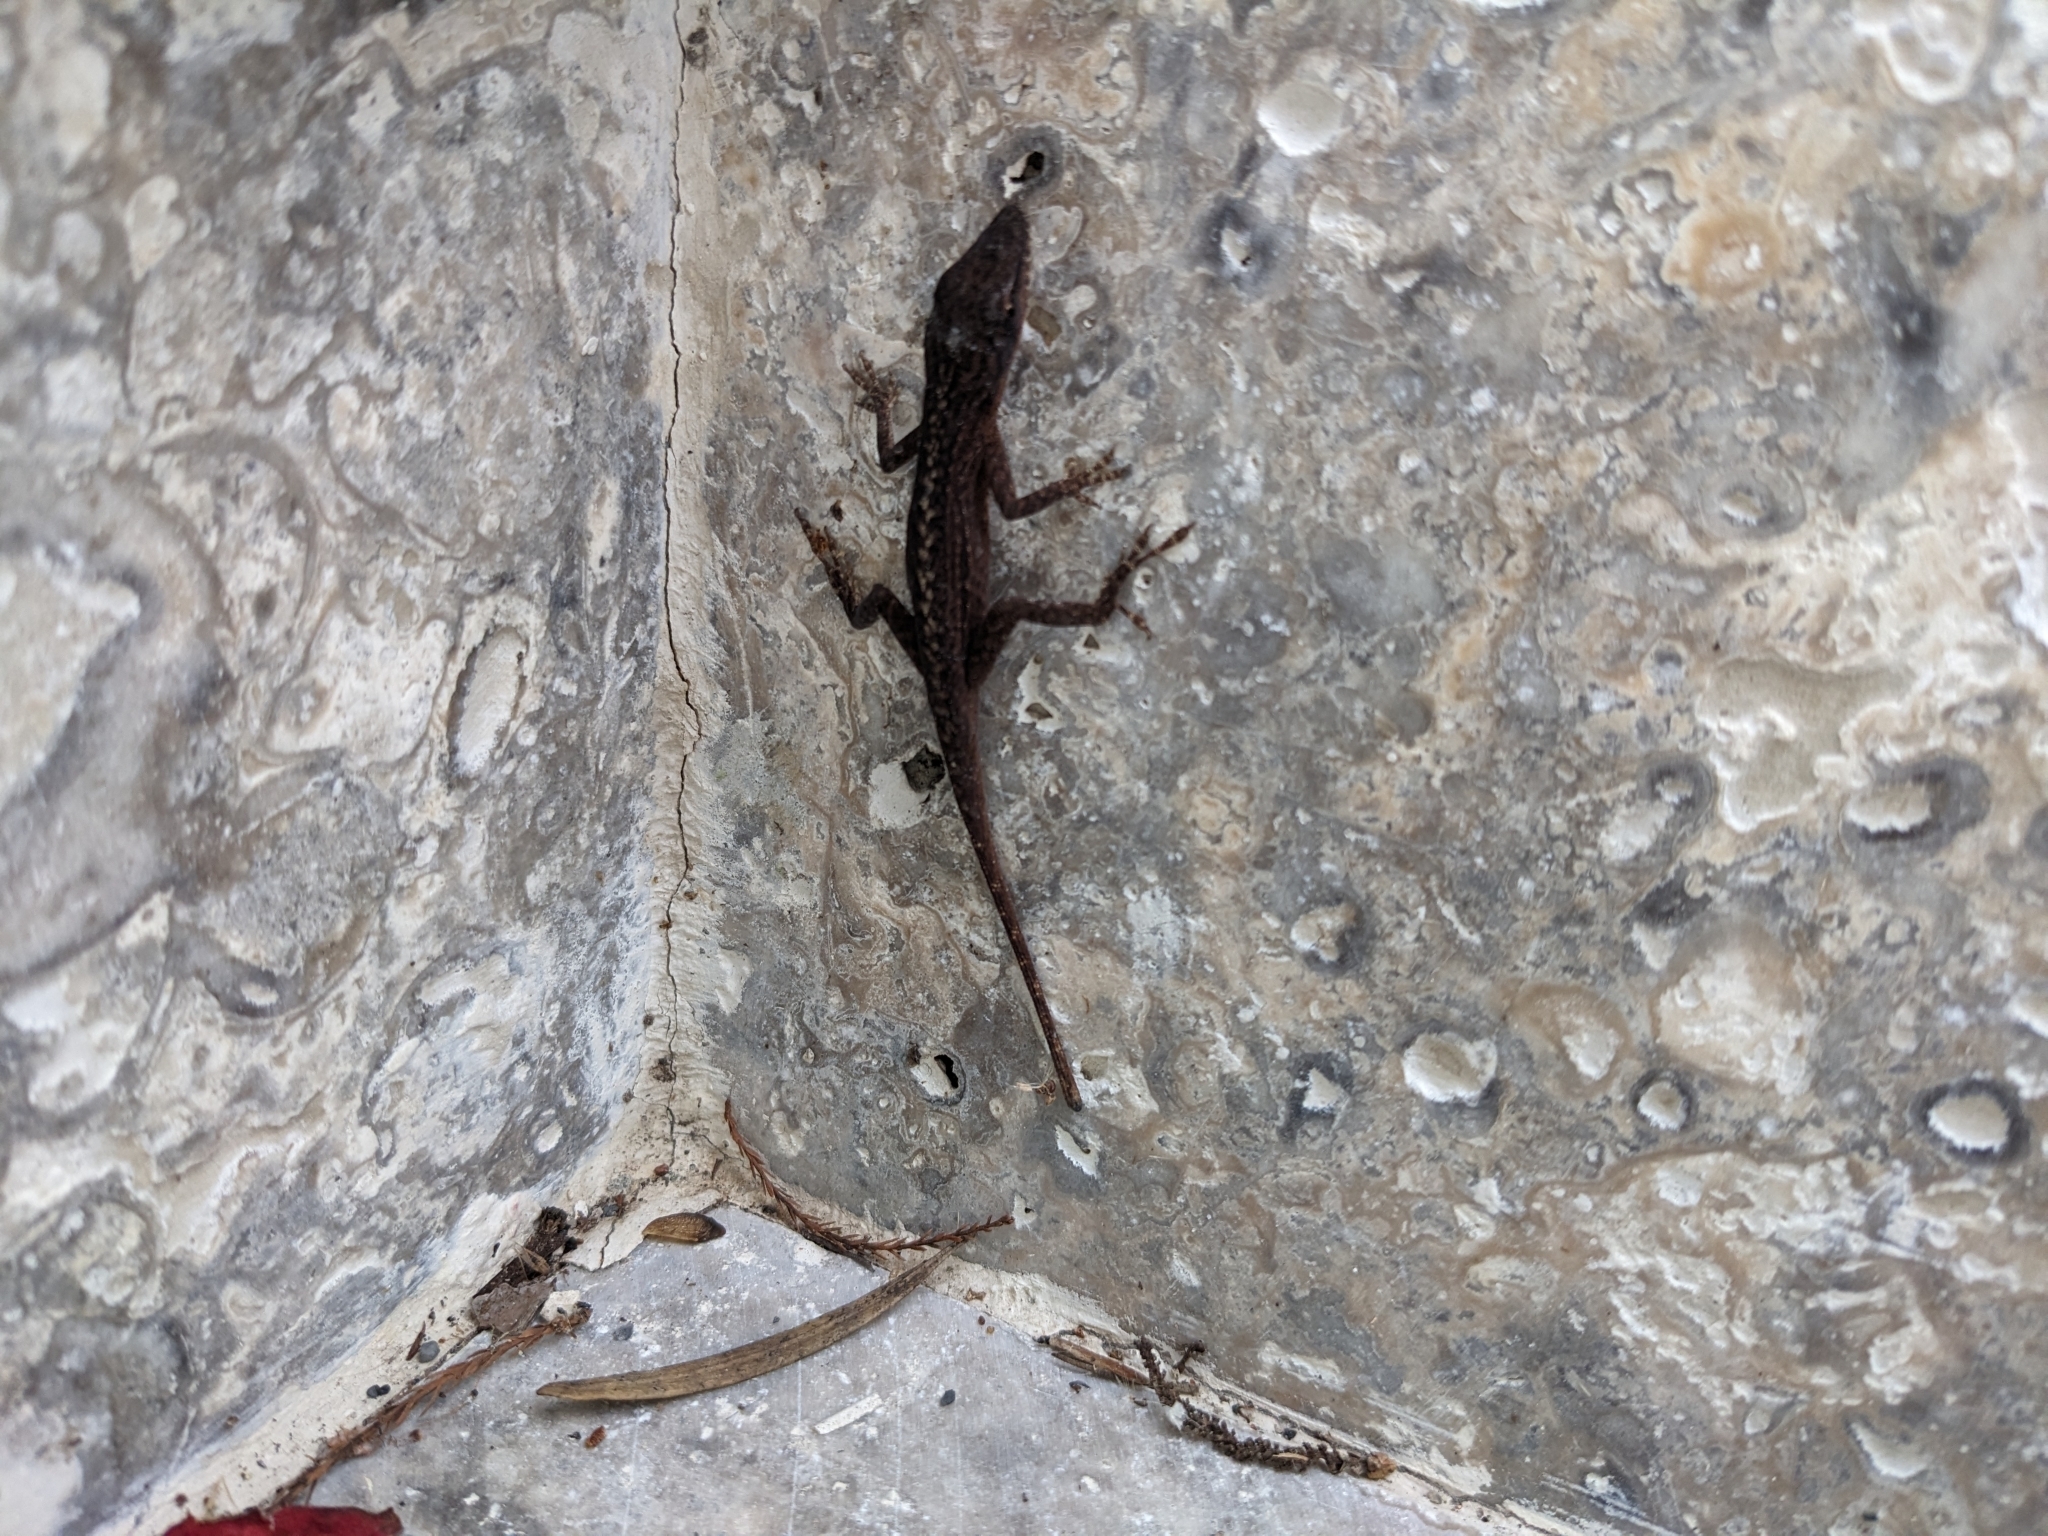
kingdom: Animalia
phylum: Chordata
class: Squamata
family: Dactyloidae
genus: Anolis
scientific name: Anolis carolinensis
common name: Green anole
